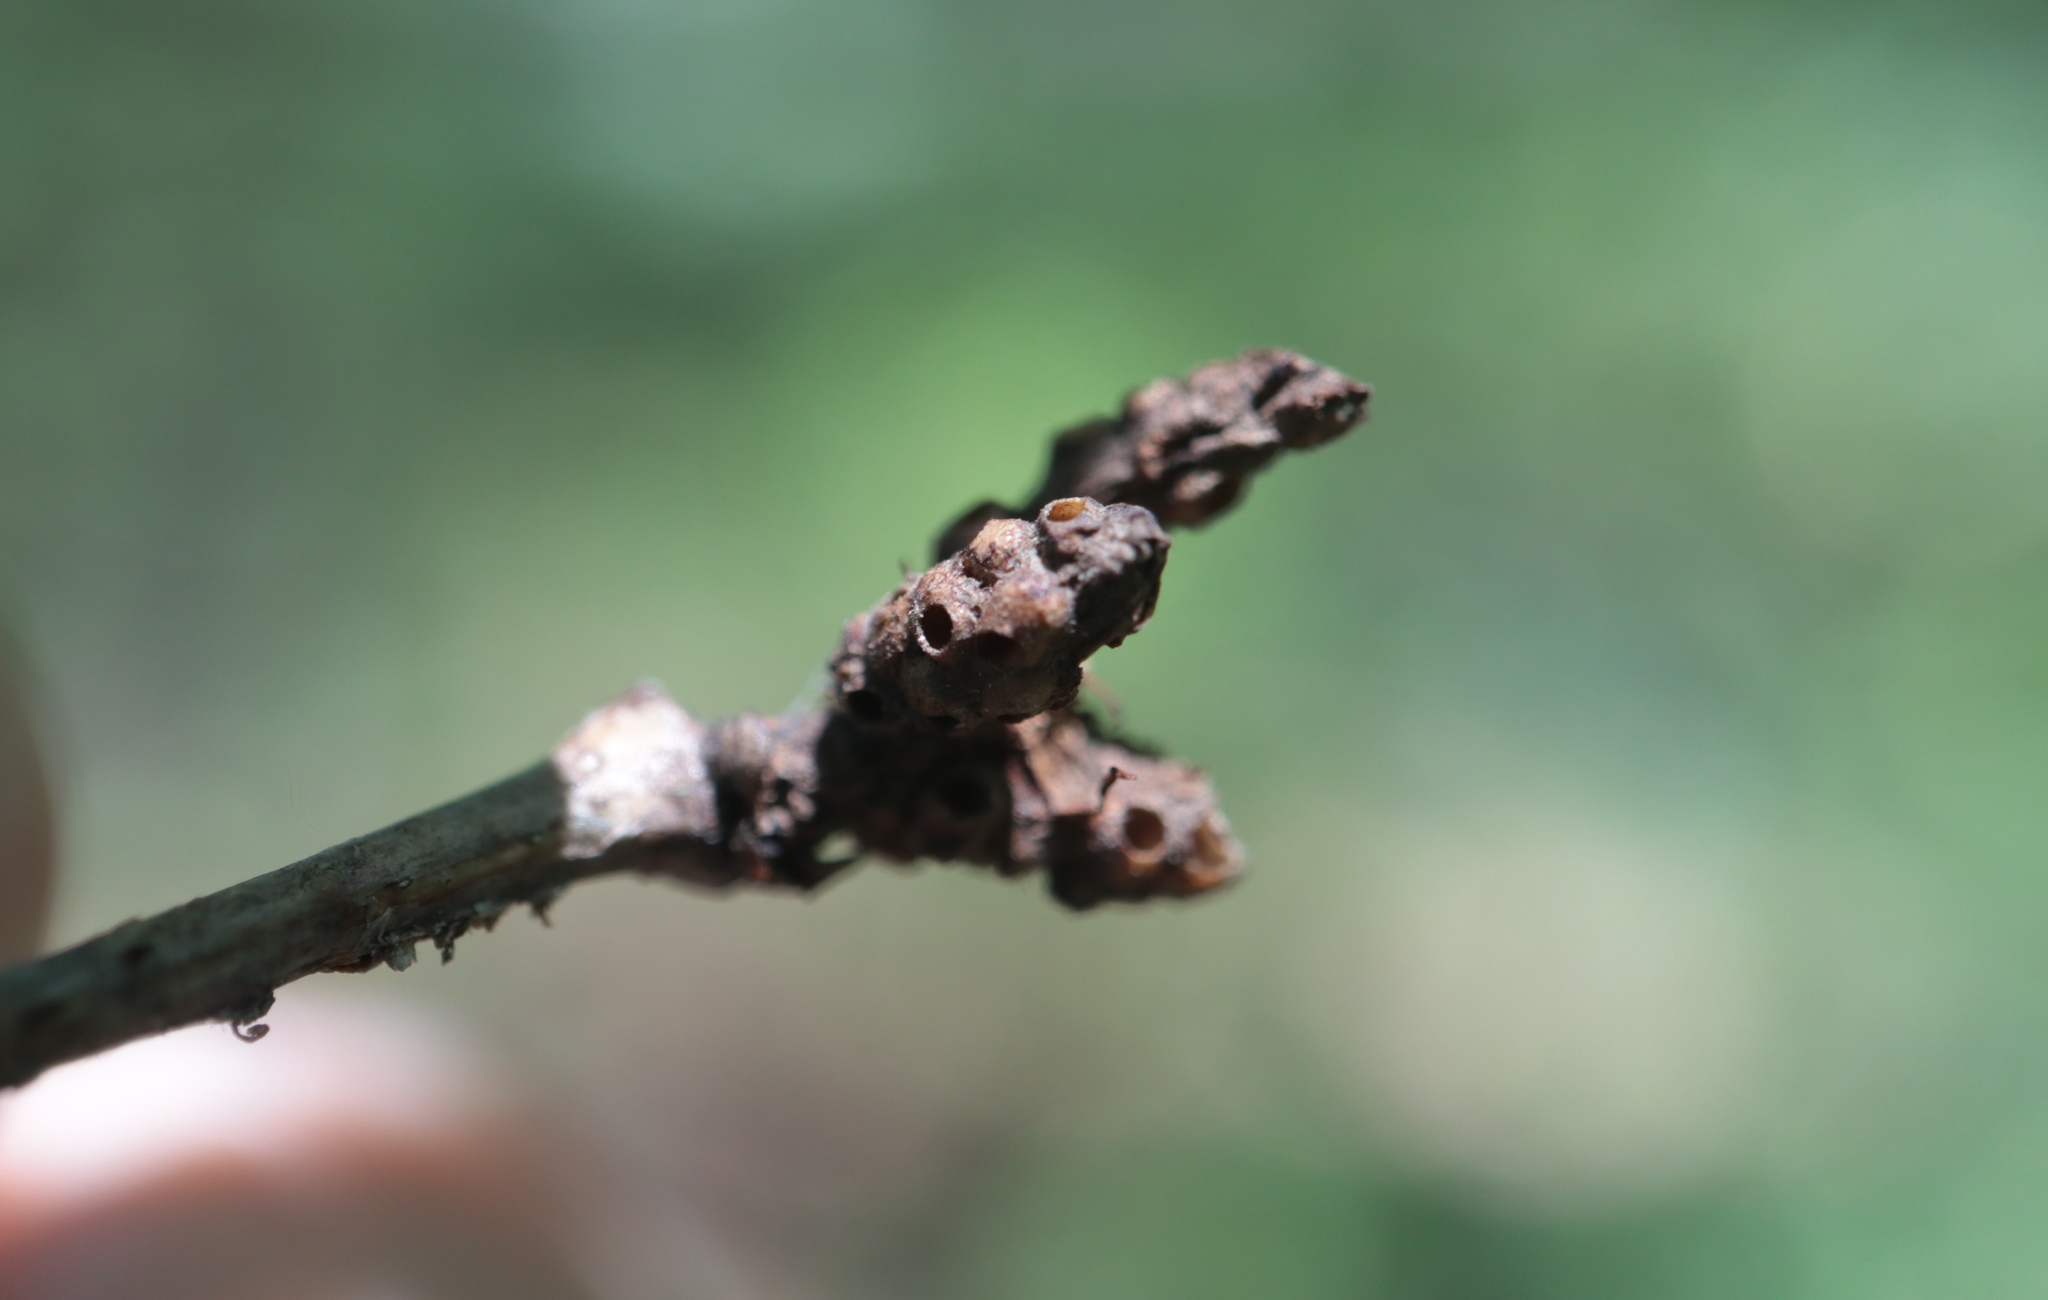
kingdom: Animalia
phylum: Arthropoda
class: Insecta
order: Hymenoptera
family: Cynipidae
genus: Neuroterus
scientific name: Neuroterus minutulus
